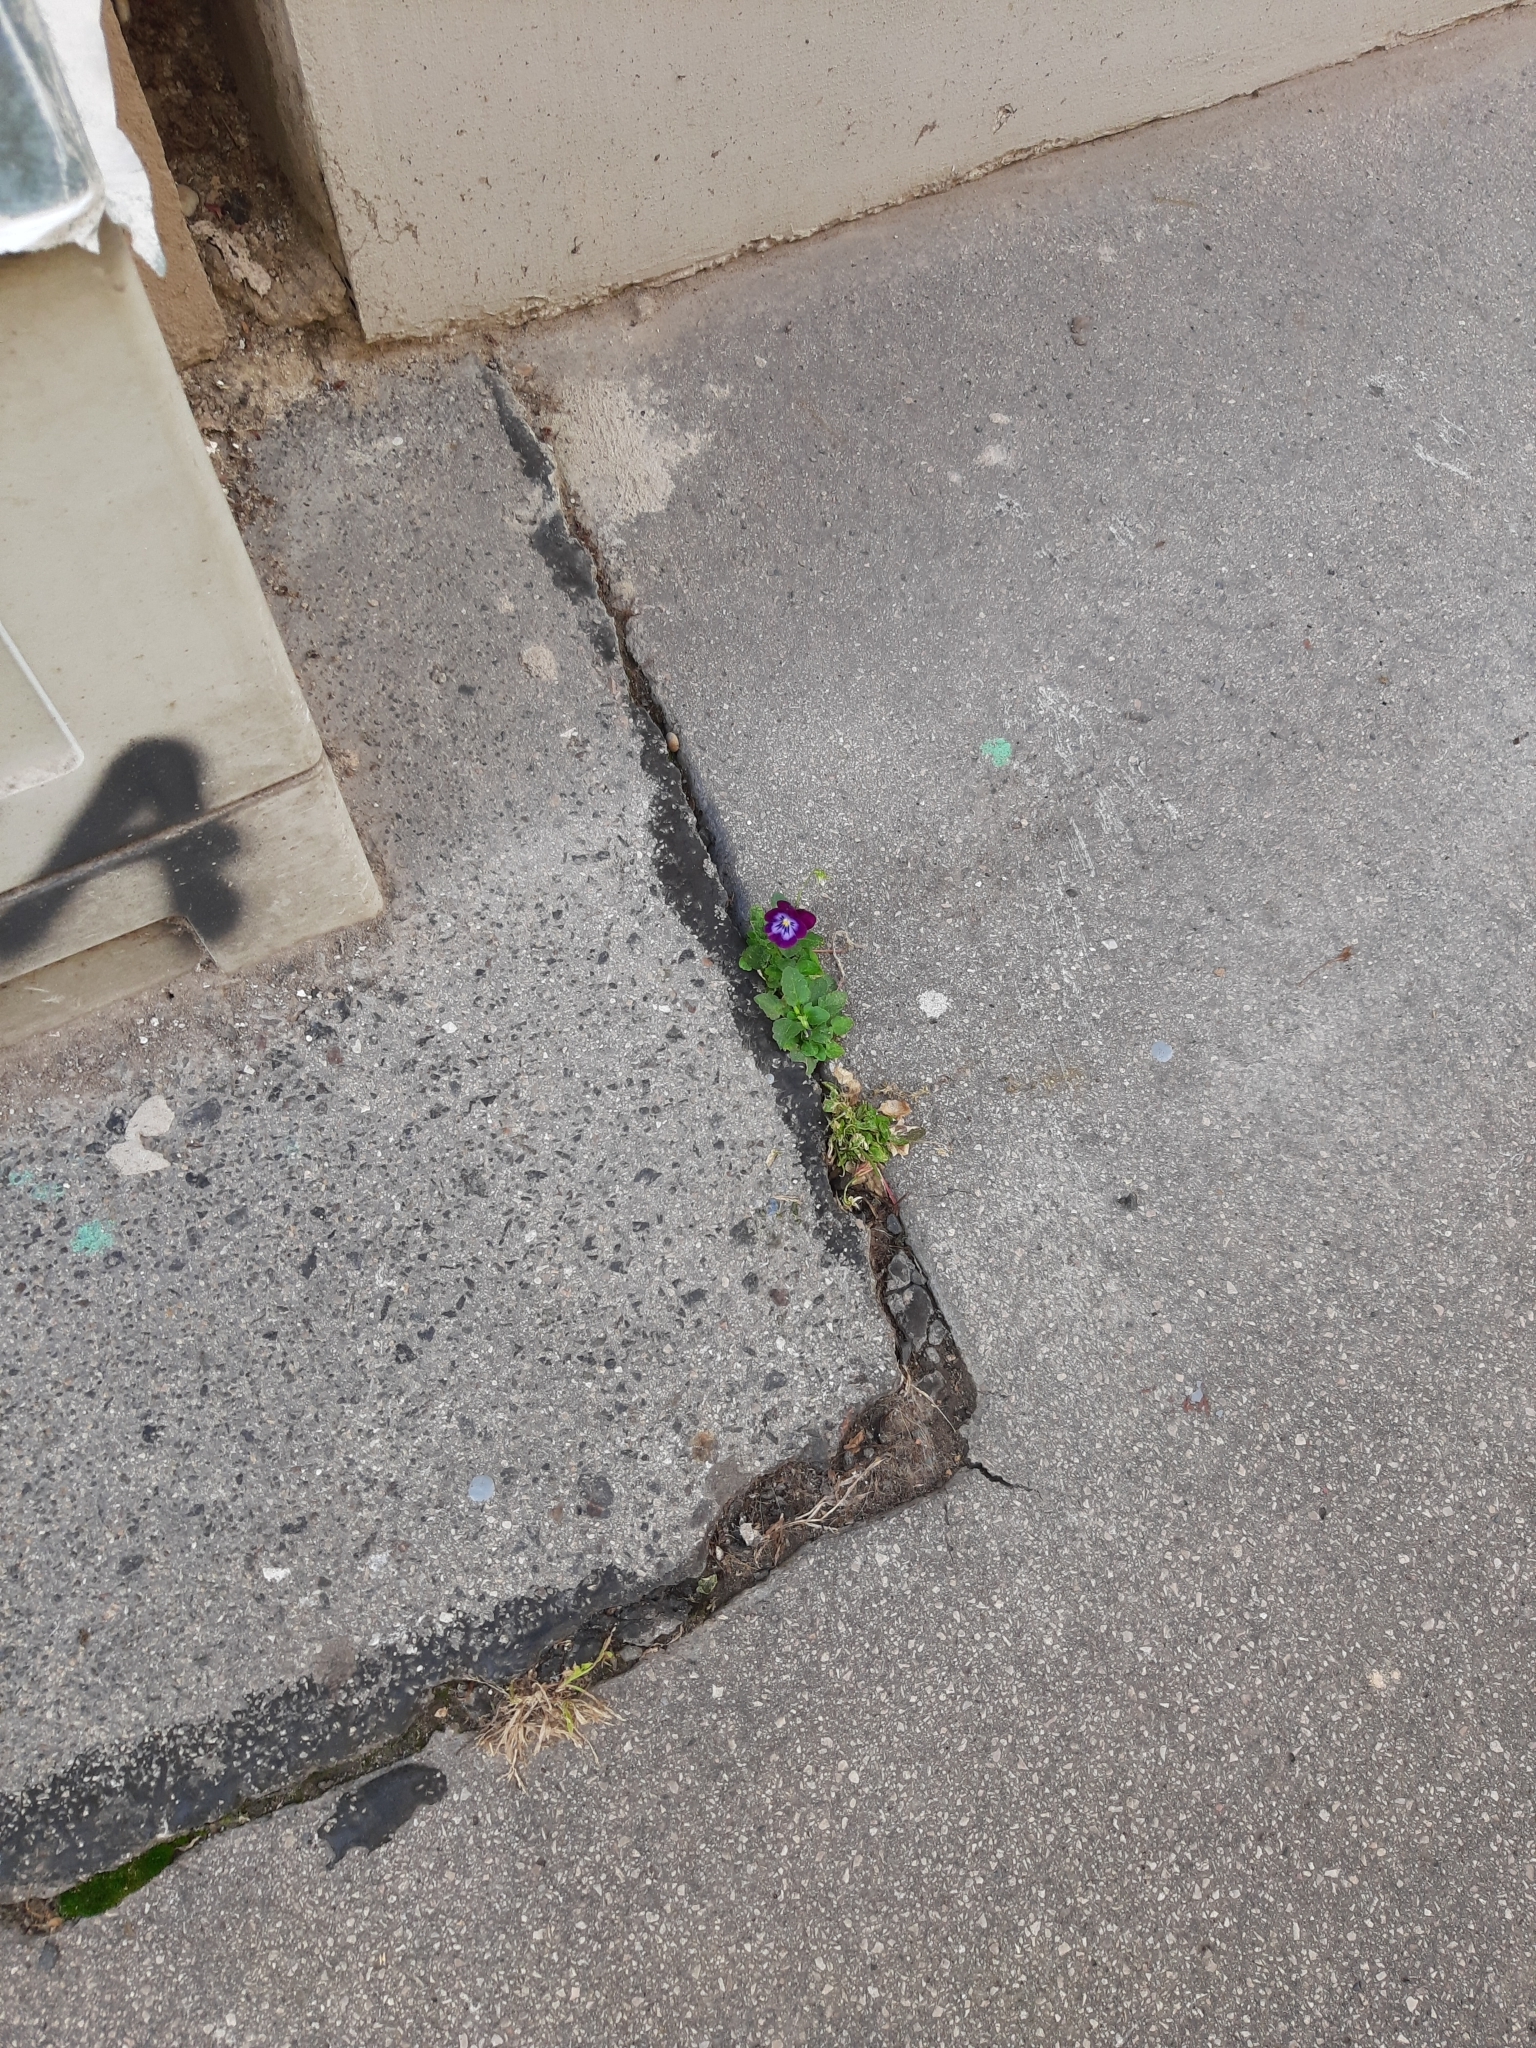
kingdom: Plantae
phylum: Tracheophyta
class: Magnoliopsida
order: Malpighiales
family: Violaceae
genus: Viola
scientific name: Viola wittrockiana
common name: Garden pansy
